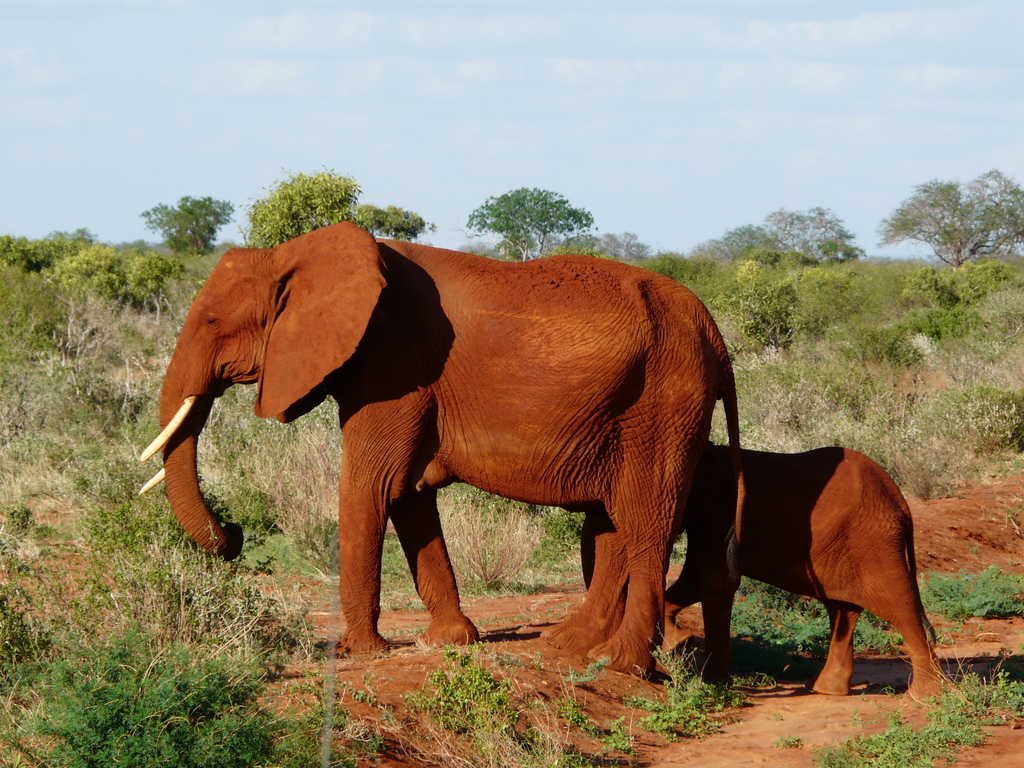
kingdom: Animalia
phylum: Chordata
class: Mammalia
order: Proboscidea
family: Elephantidae
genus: Loxodonta
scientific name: Loxodonta africana
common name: African elephant
